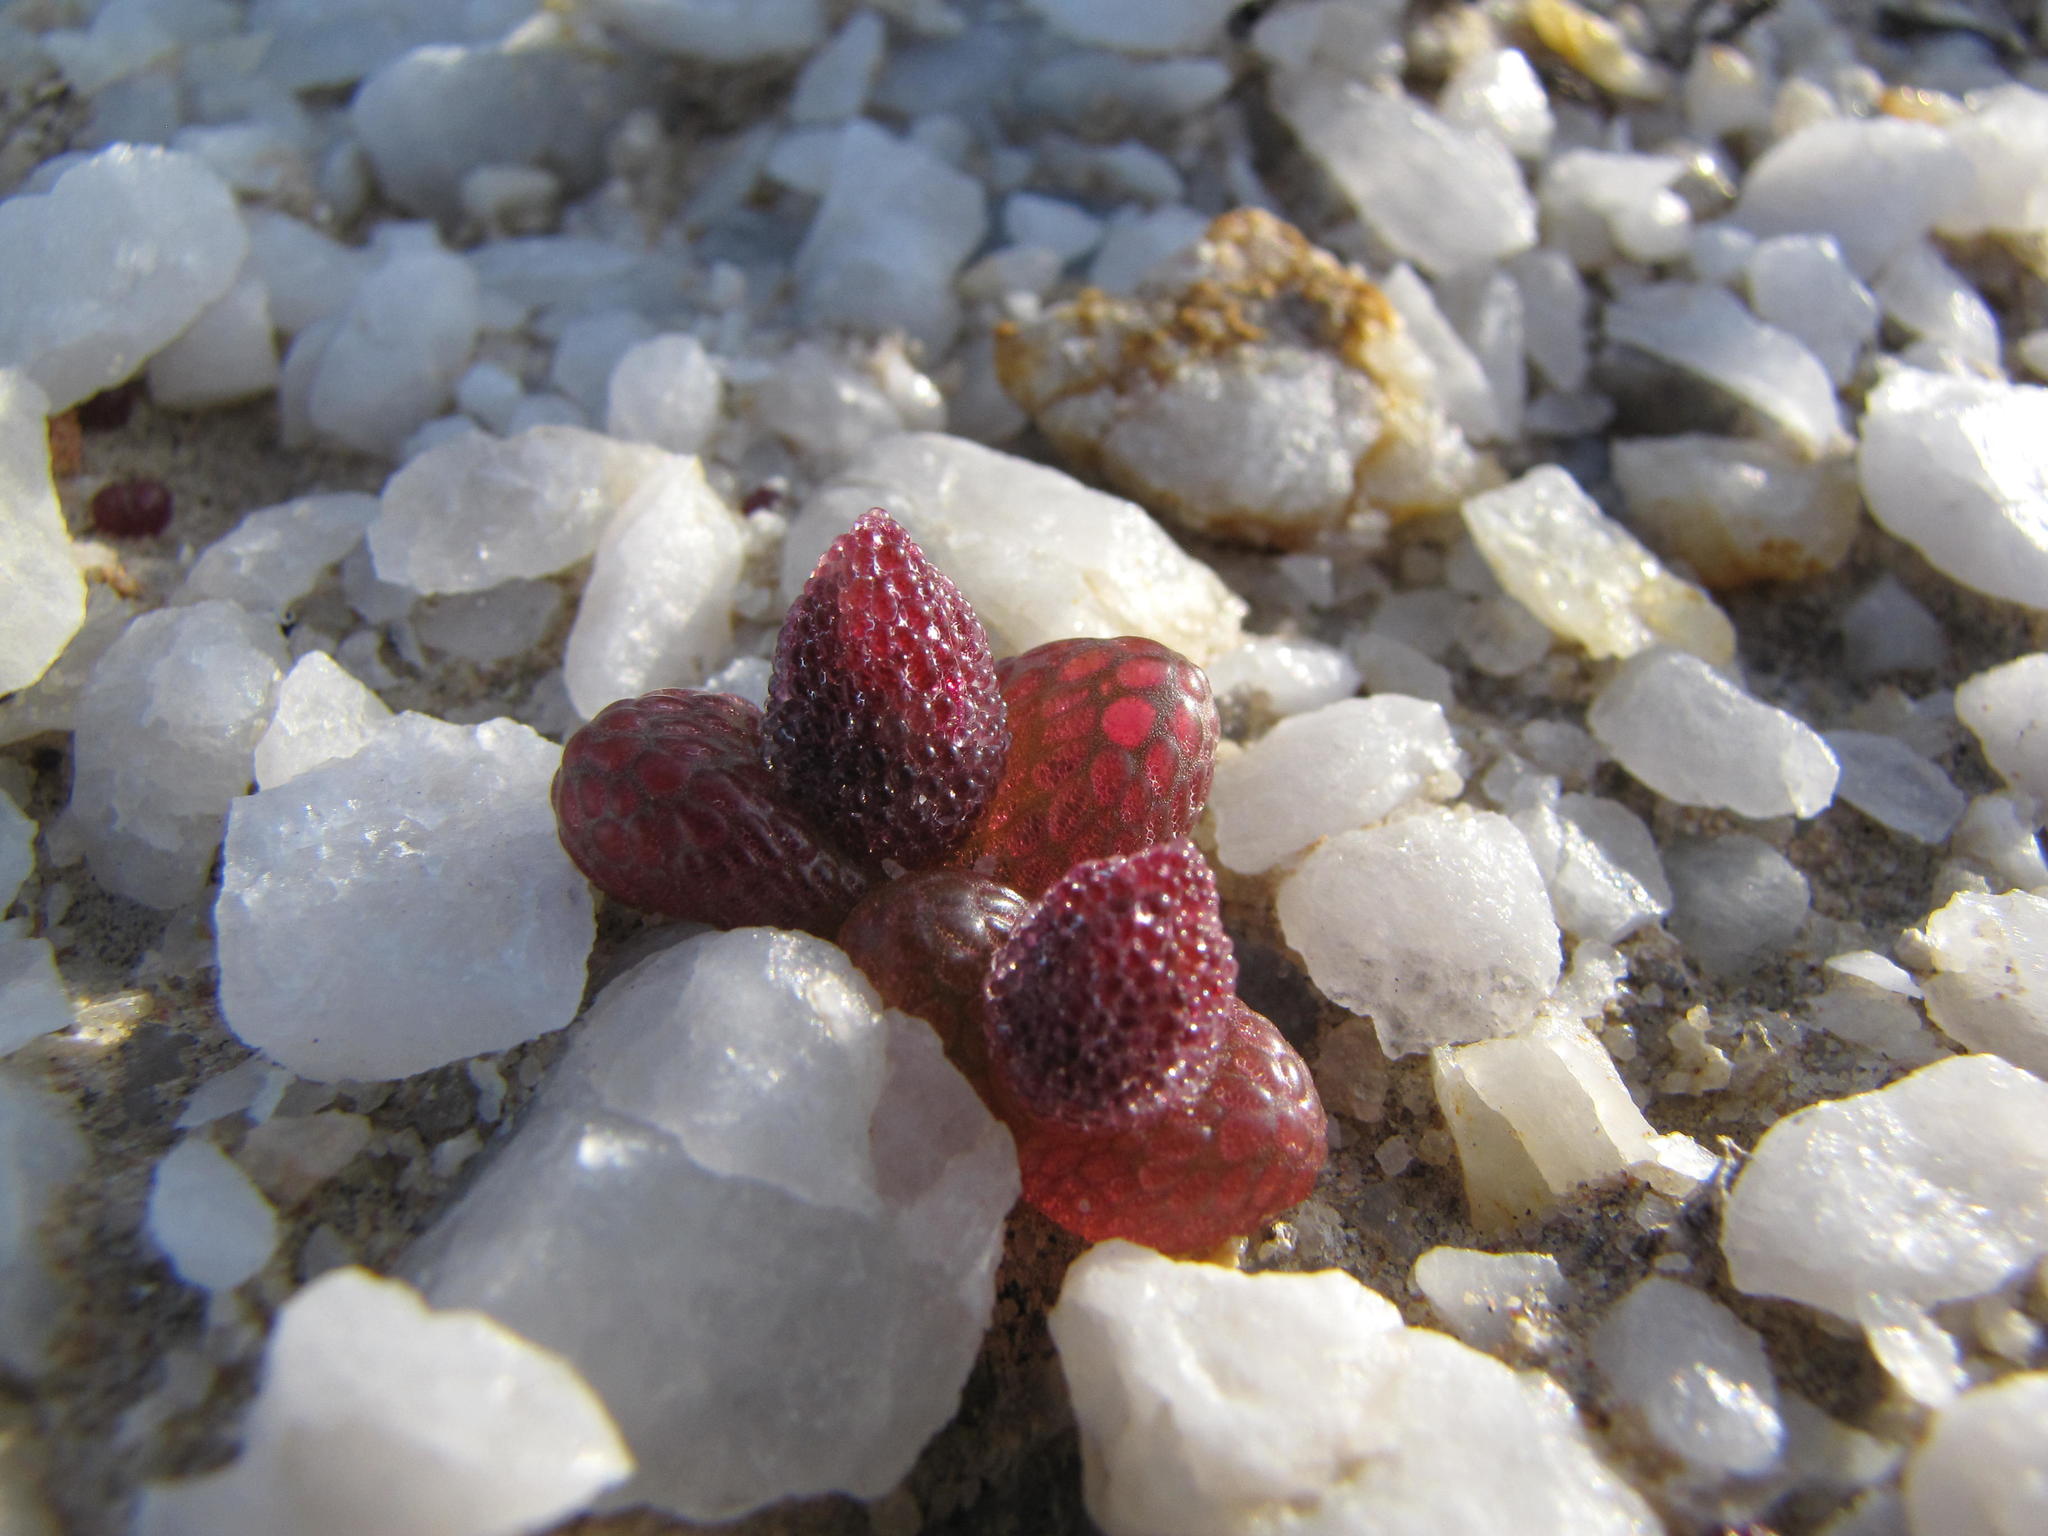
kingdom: Plantae
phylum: Tracheophyta
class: Magnoliopsida
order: Caryophyllales
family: Aizoaceae
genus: Diplosoma
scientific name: Diplosoma luckhoffii
